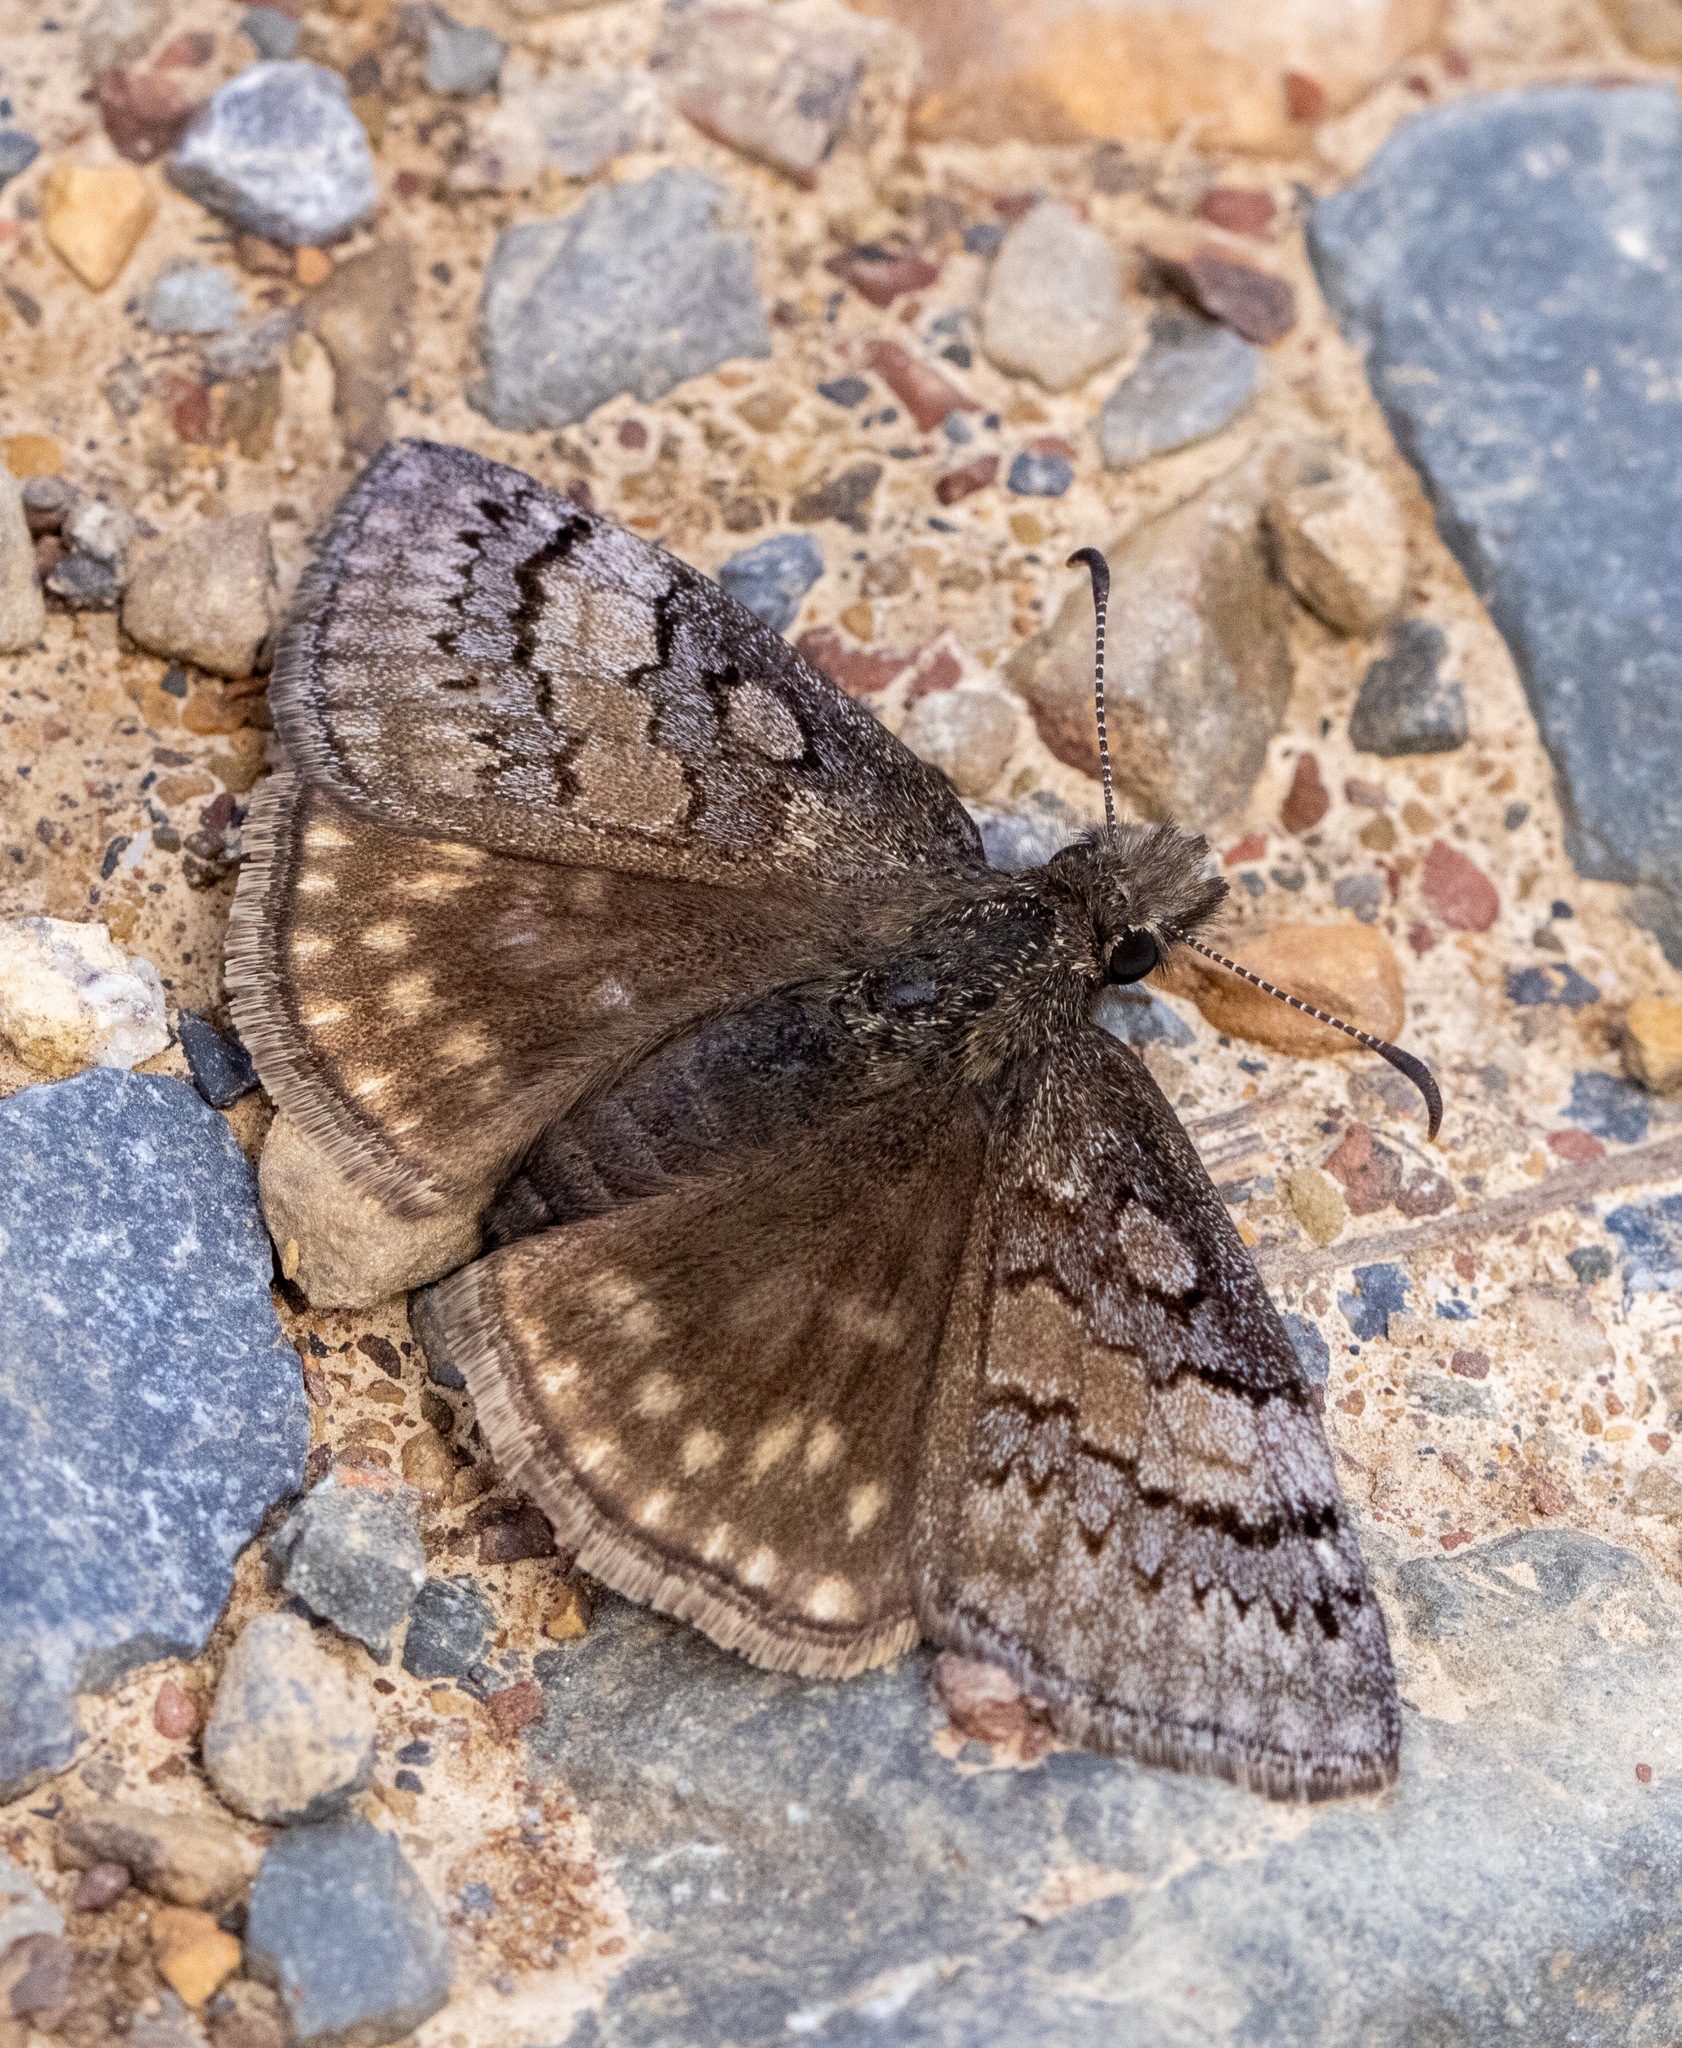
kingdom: Animalia
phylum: Arthropoda
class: Insecta
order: Lepidoptera
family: Hesperiidae
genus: Erynnis
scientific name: Erynnis brizo
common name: Sleepy duskywing
